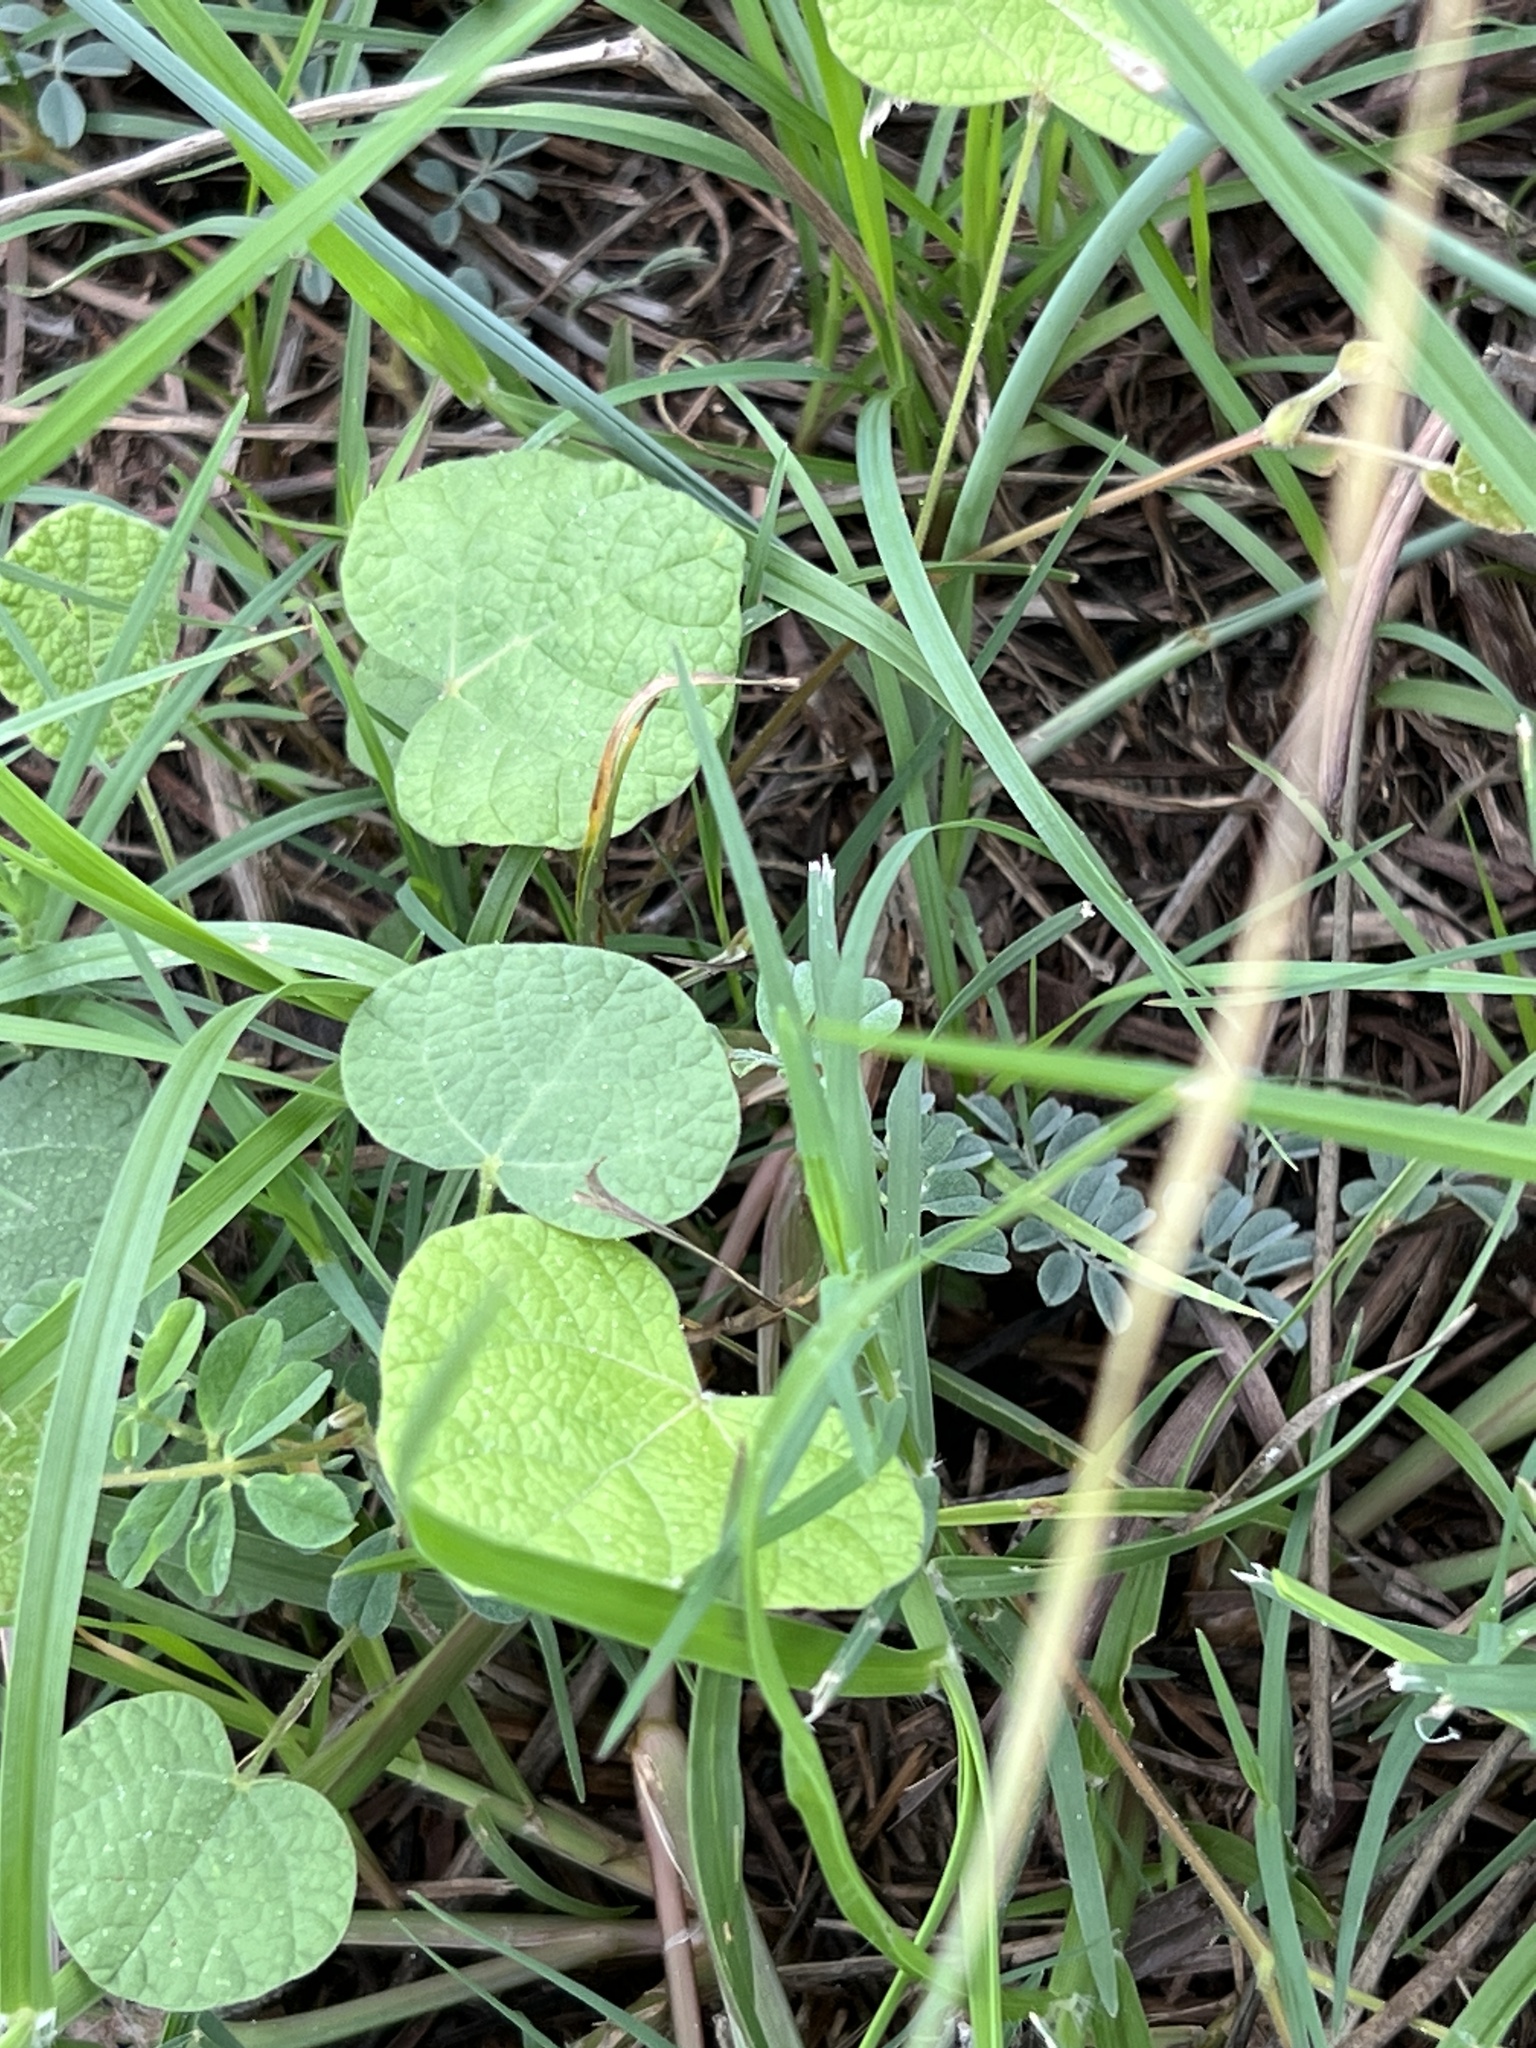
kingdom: Plantae
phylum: Tracheophyta
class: Magnoliopsida
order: Fabales
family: Fabaceae
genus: Rhynchosia
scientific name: Rhynchosia americana
